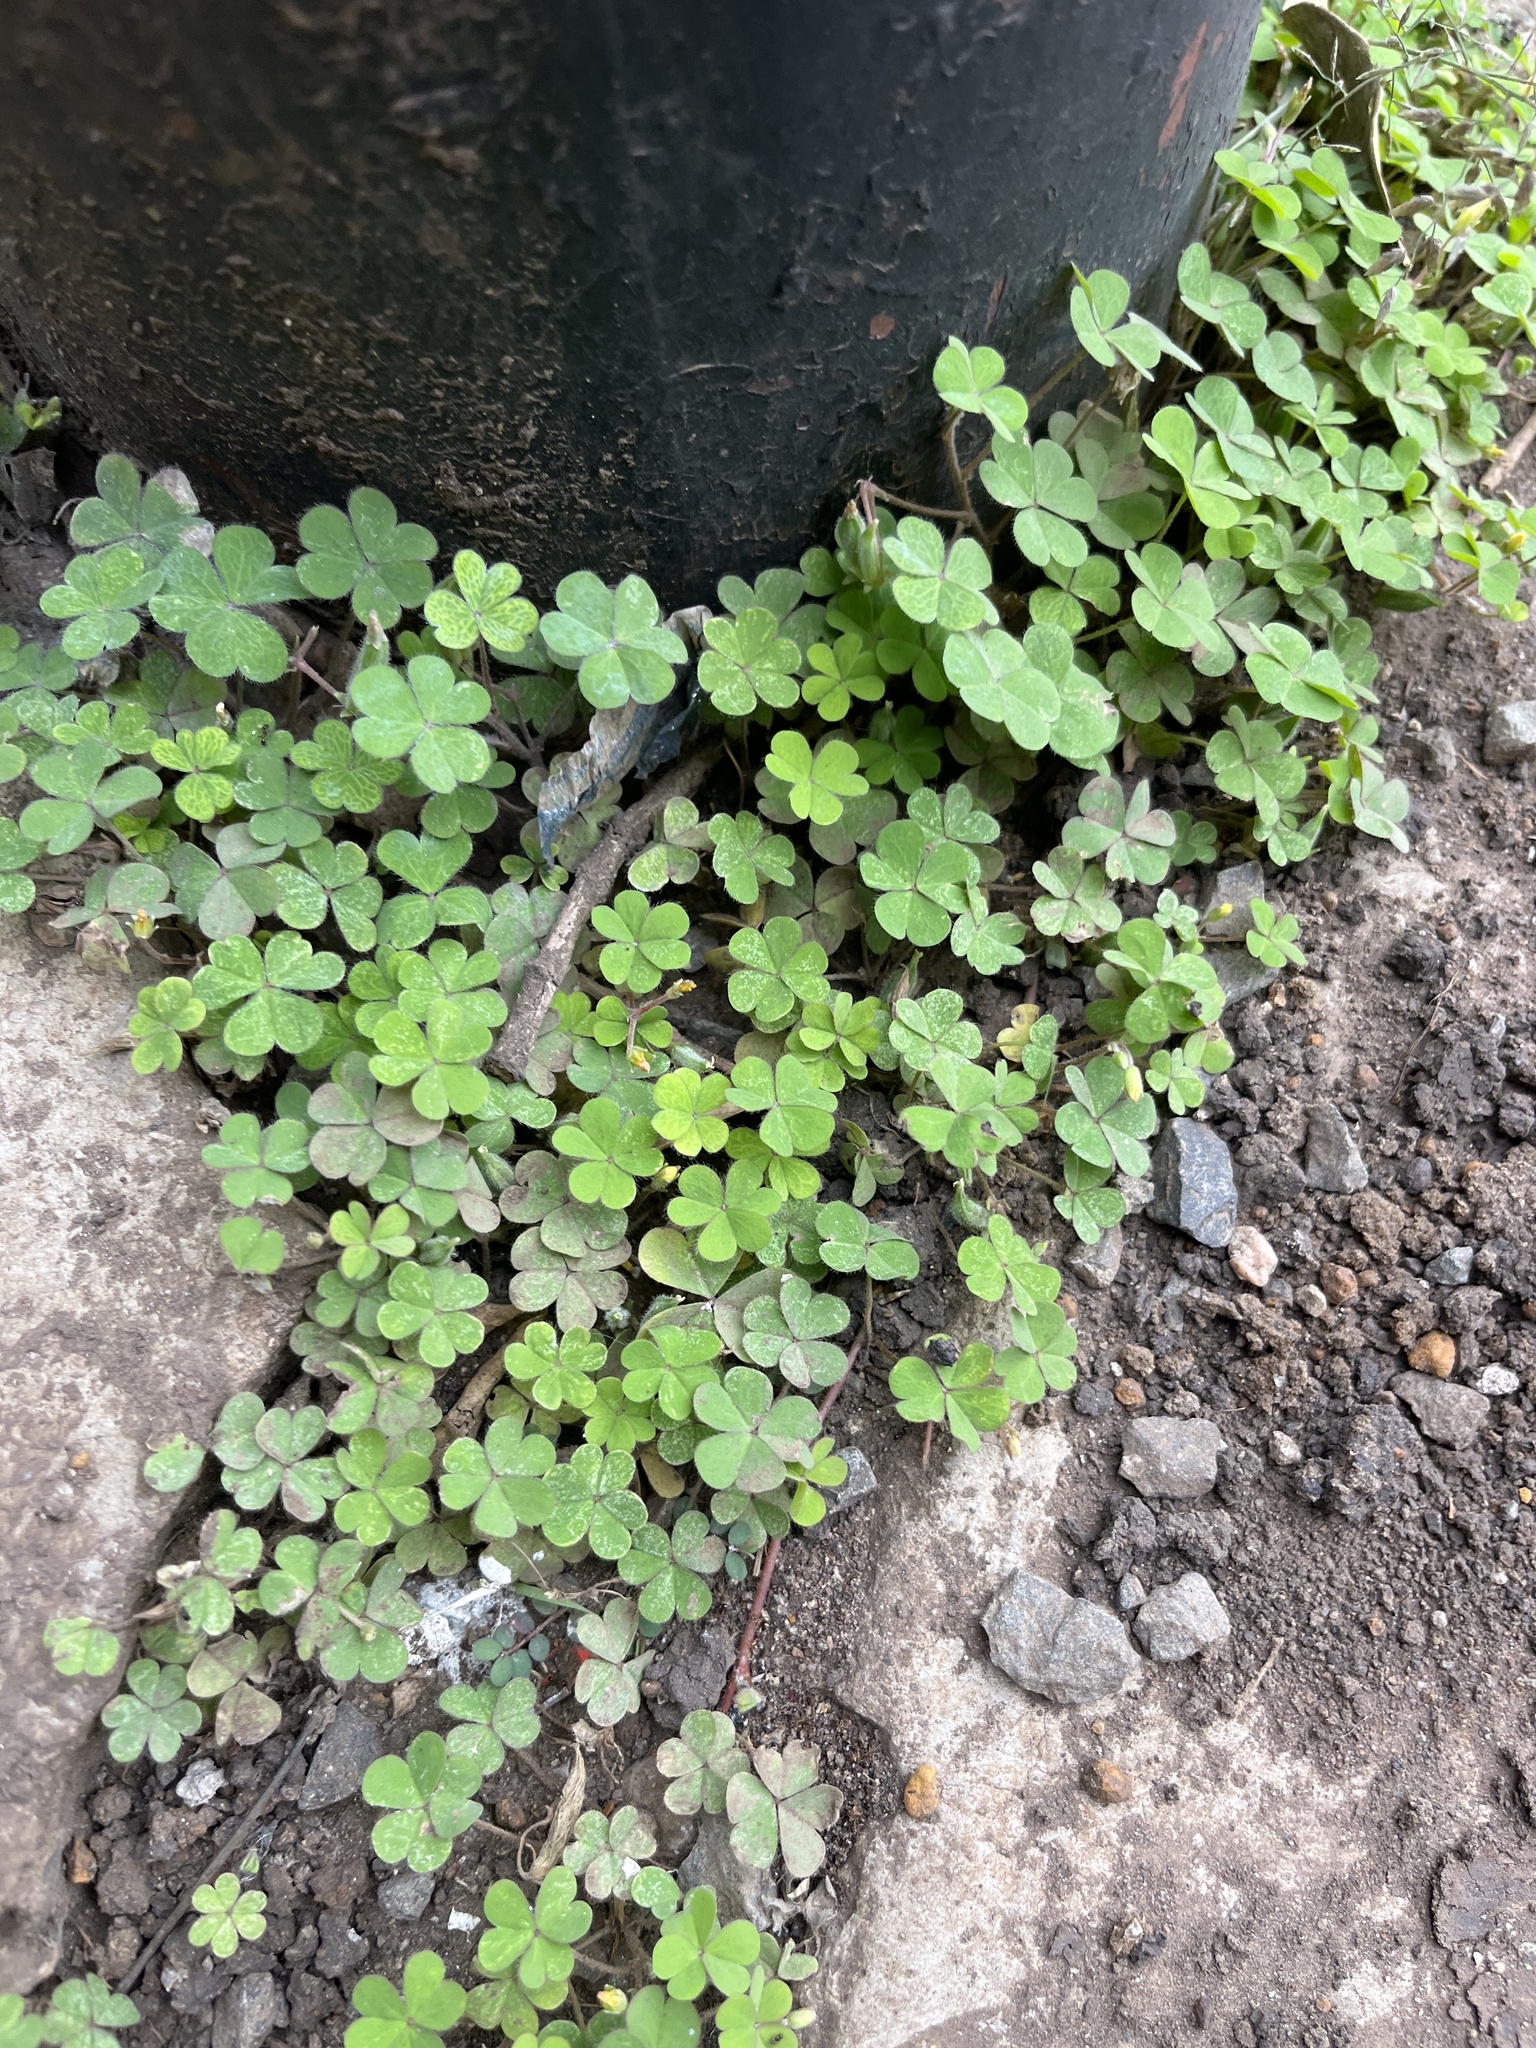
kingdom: Plantae
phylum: Tracheophyta
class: Magnoliopsida
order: Oxalidales
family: Oxalidaceae
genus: Oxalis
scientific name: Oxalis corniculata
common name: Procumbent yellow-sorrel
